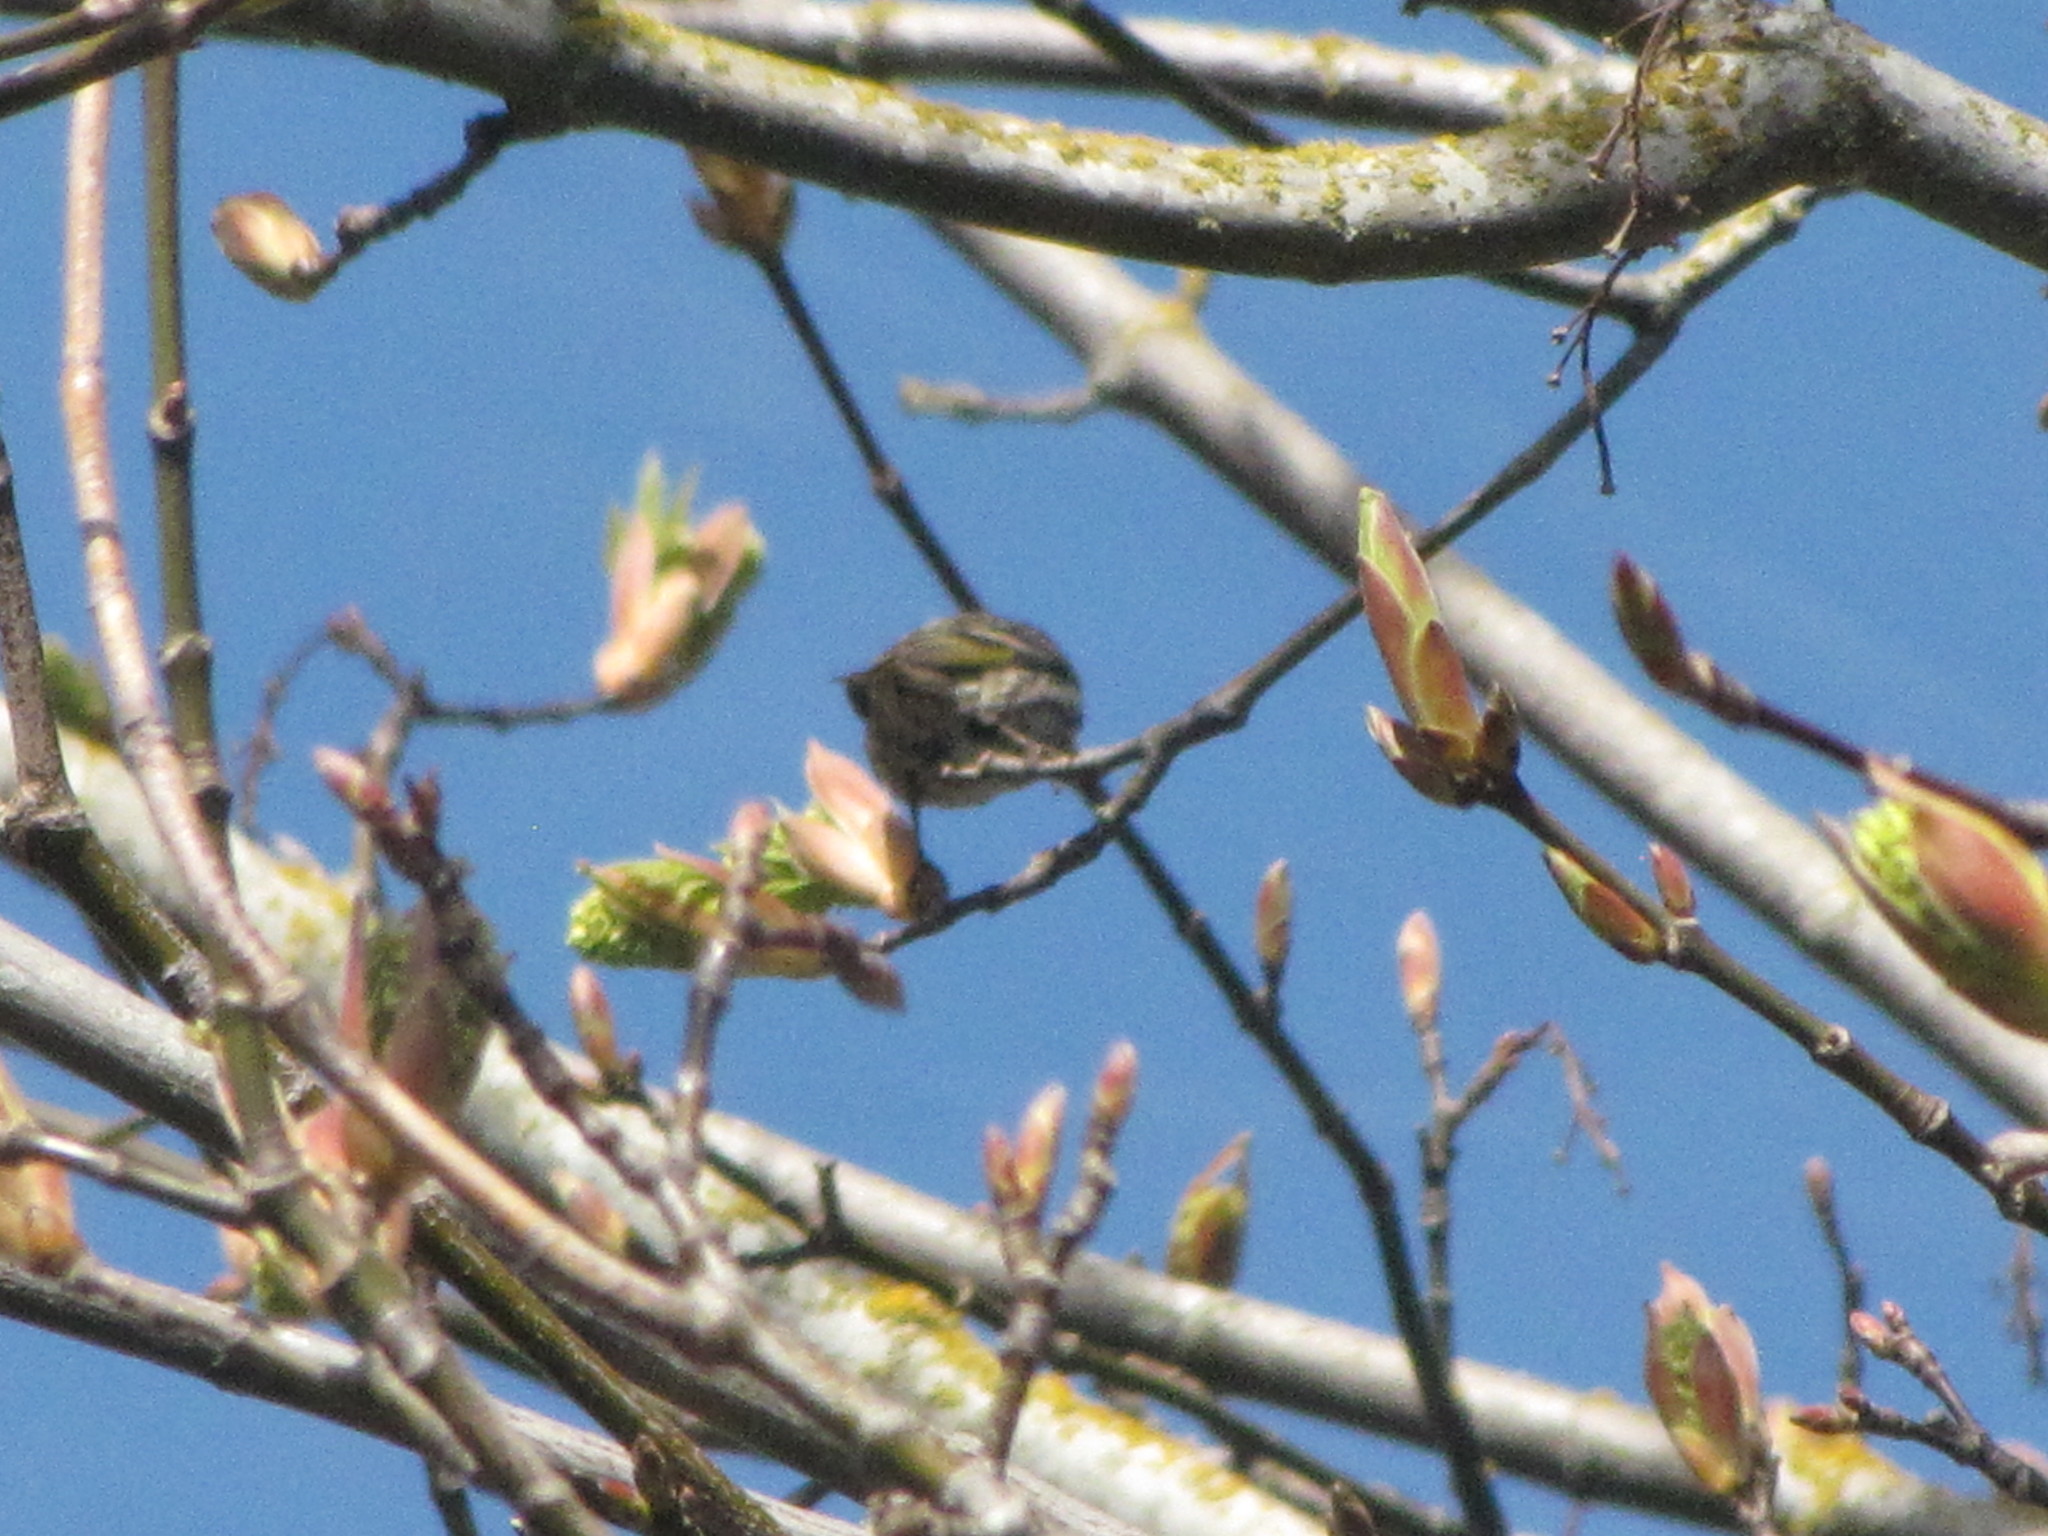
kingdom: Animalia
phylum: Chordata
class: Aves
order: Passeriformes
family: Fringillidae
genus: Spinus
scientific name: Spinus pinus
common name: Pine siskin
